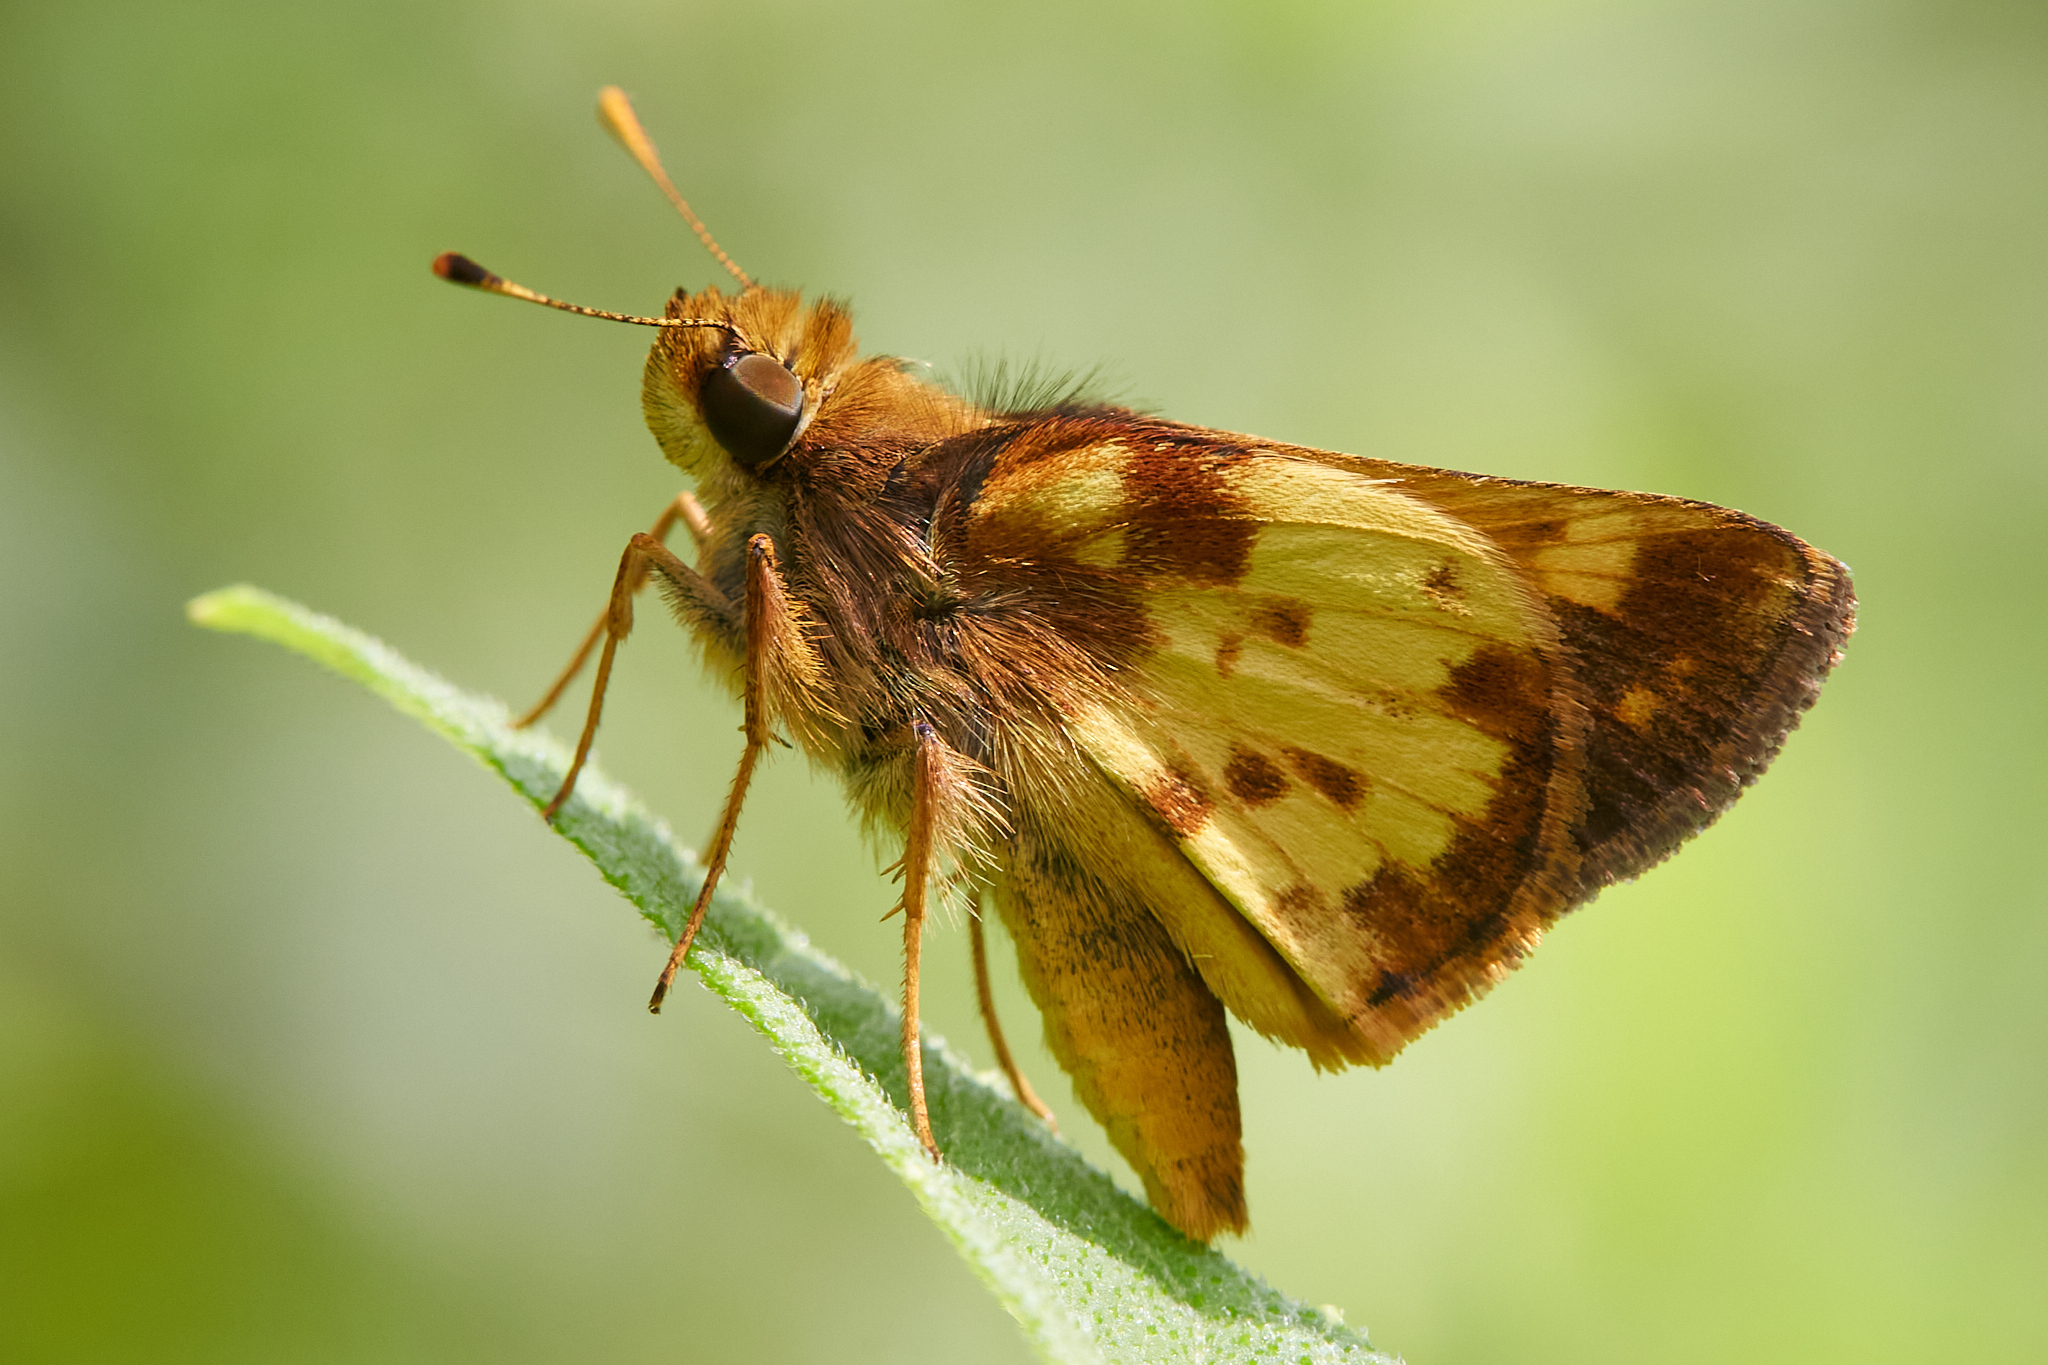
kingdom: Animalia
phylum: Arthropoda
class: Insecta
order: Lepidoptera
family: Hesperiidae
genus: Lon
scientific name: Lon zabulon
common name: Zabulon skipper
